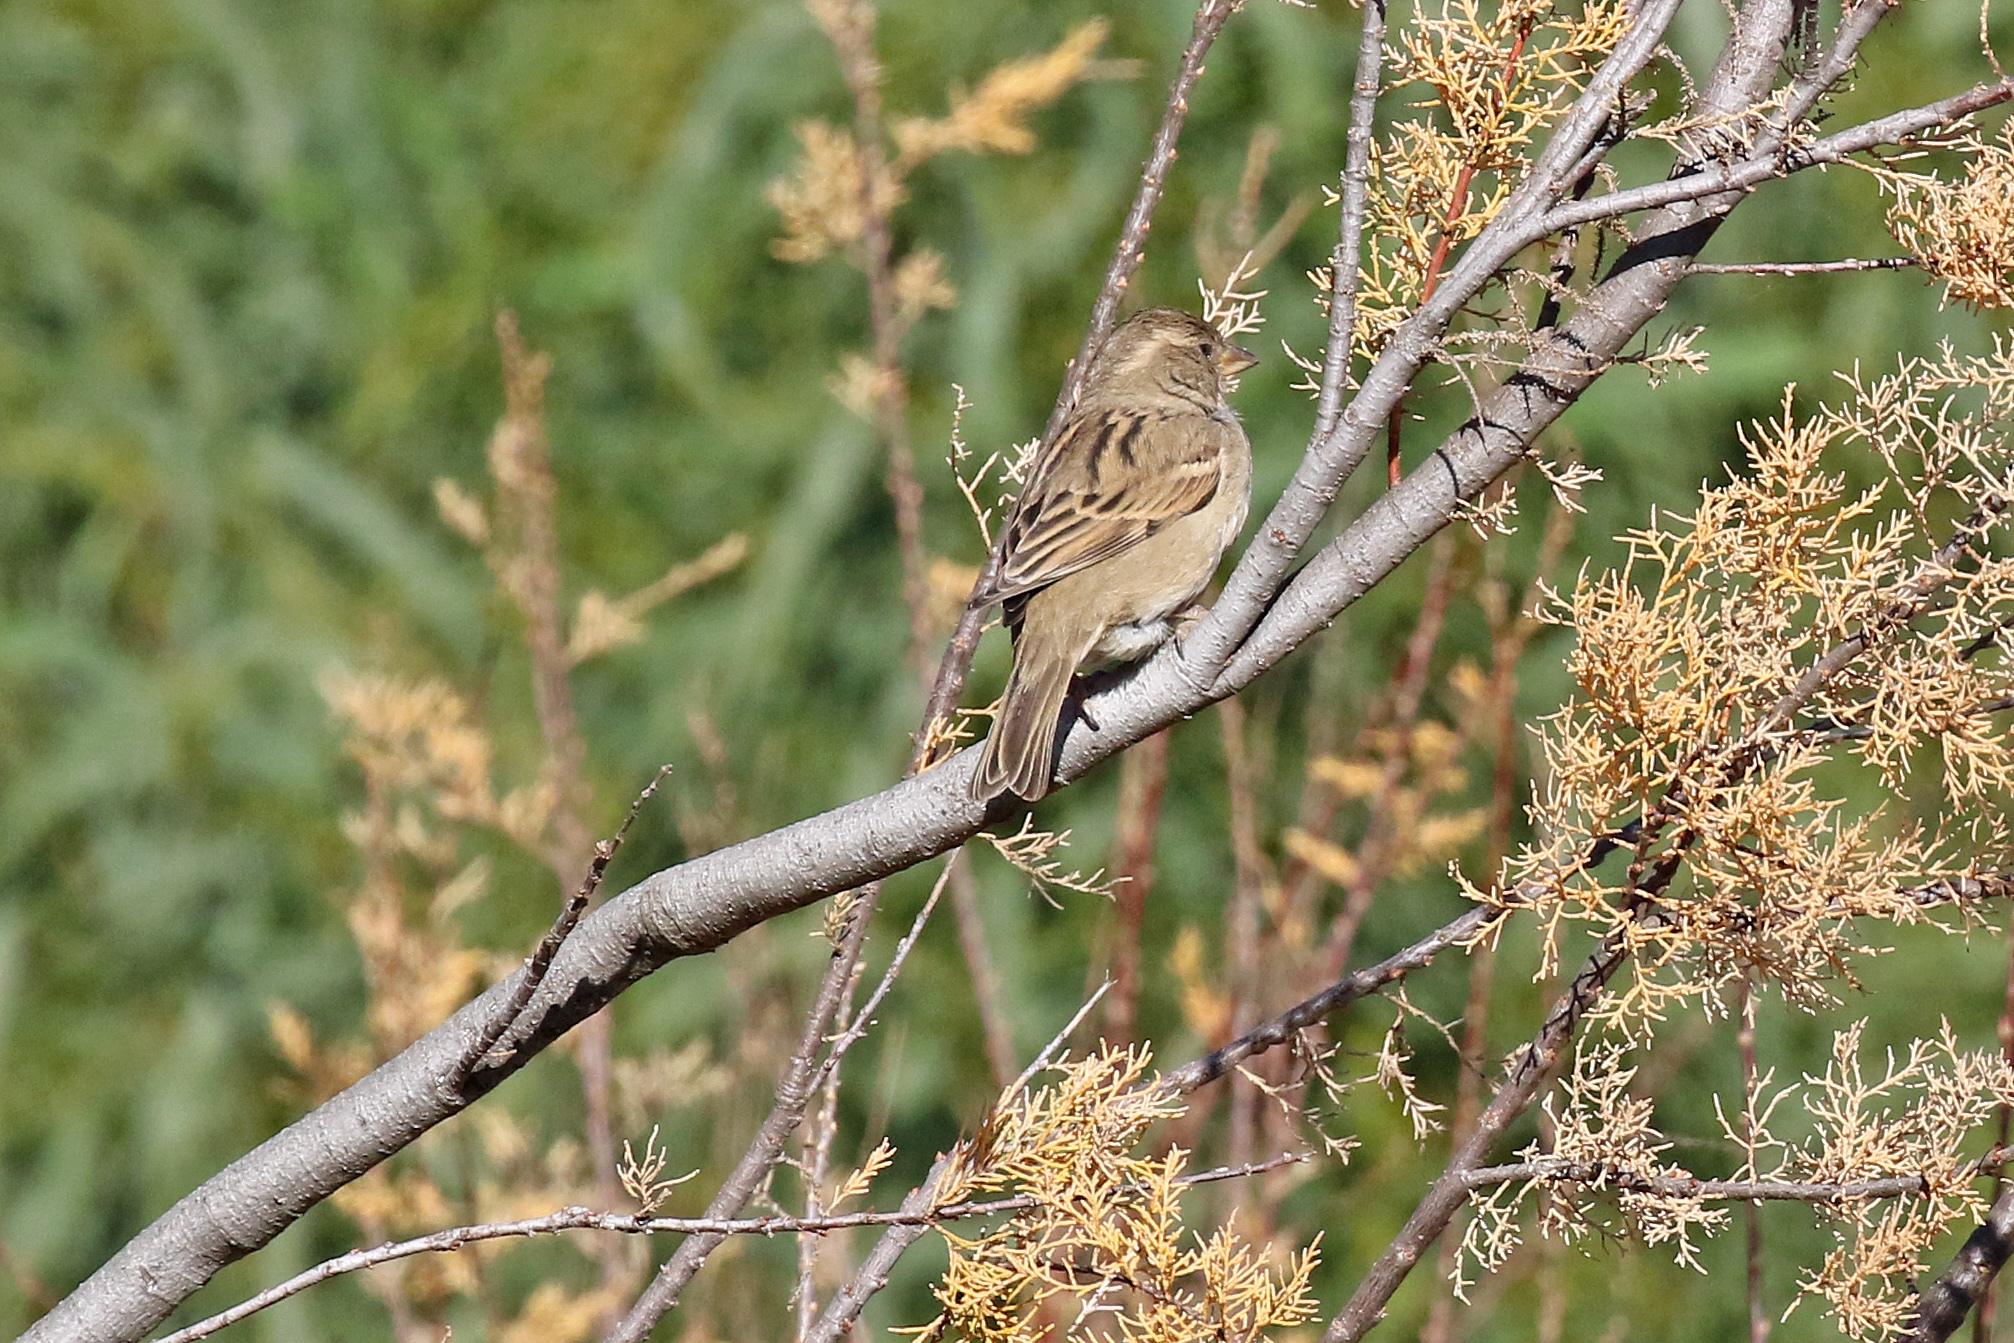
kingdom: Animalia
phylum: Chordata
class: Aves
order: Passeriformes
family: Passeridae
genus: Passer
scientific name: Passer domesticus
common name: House sparrow
